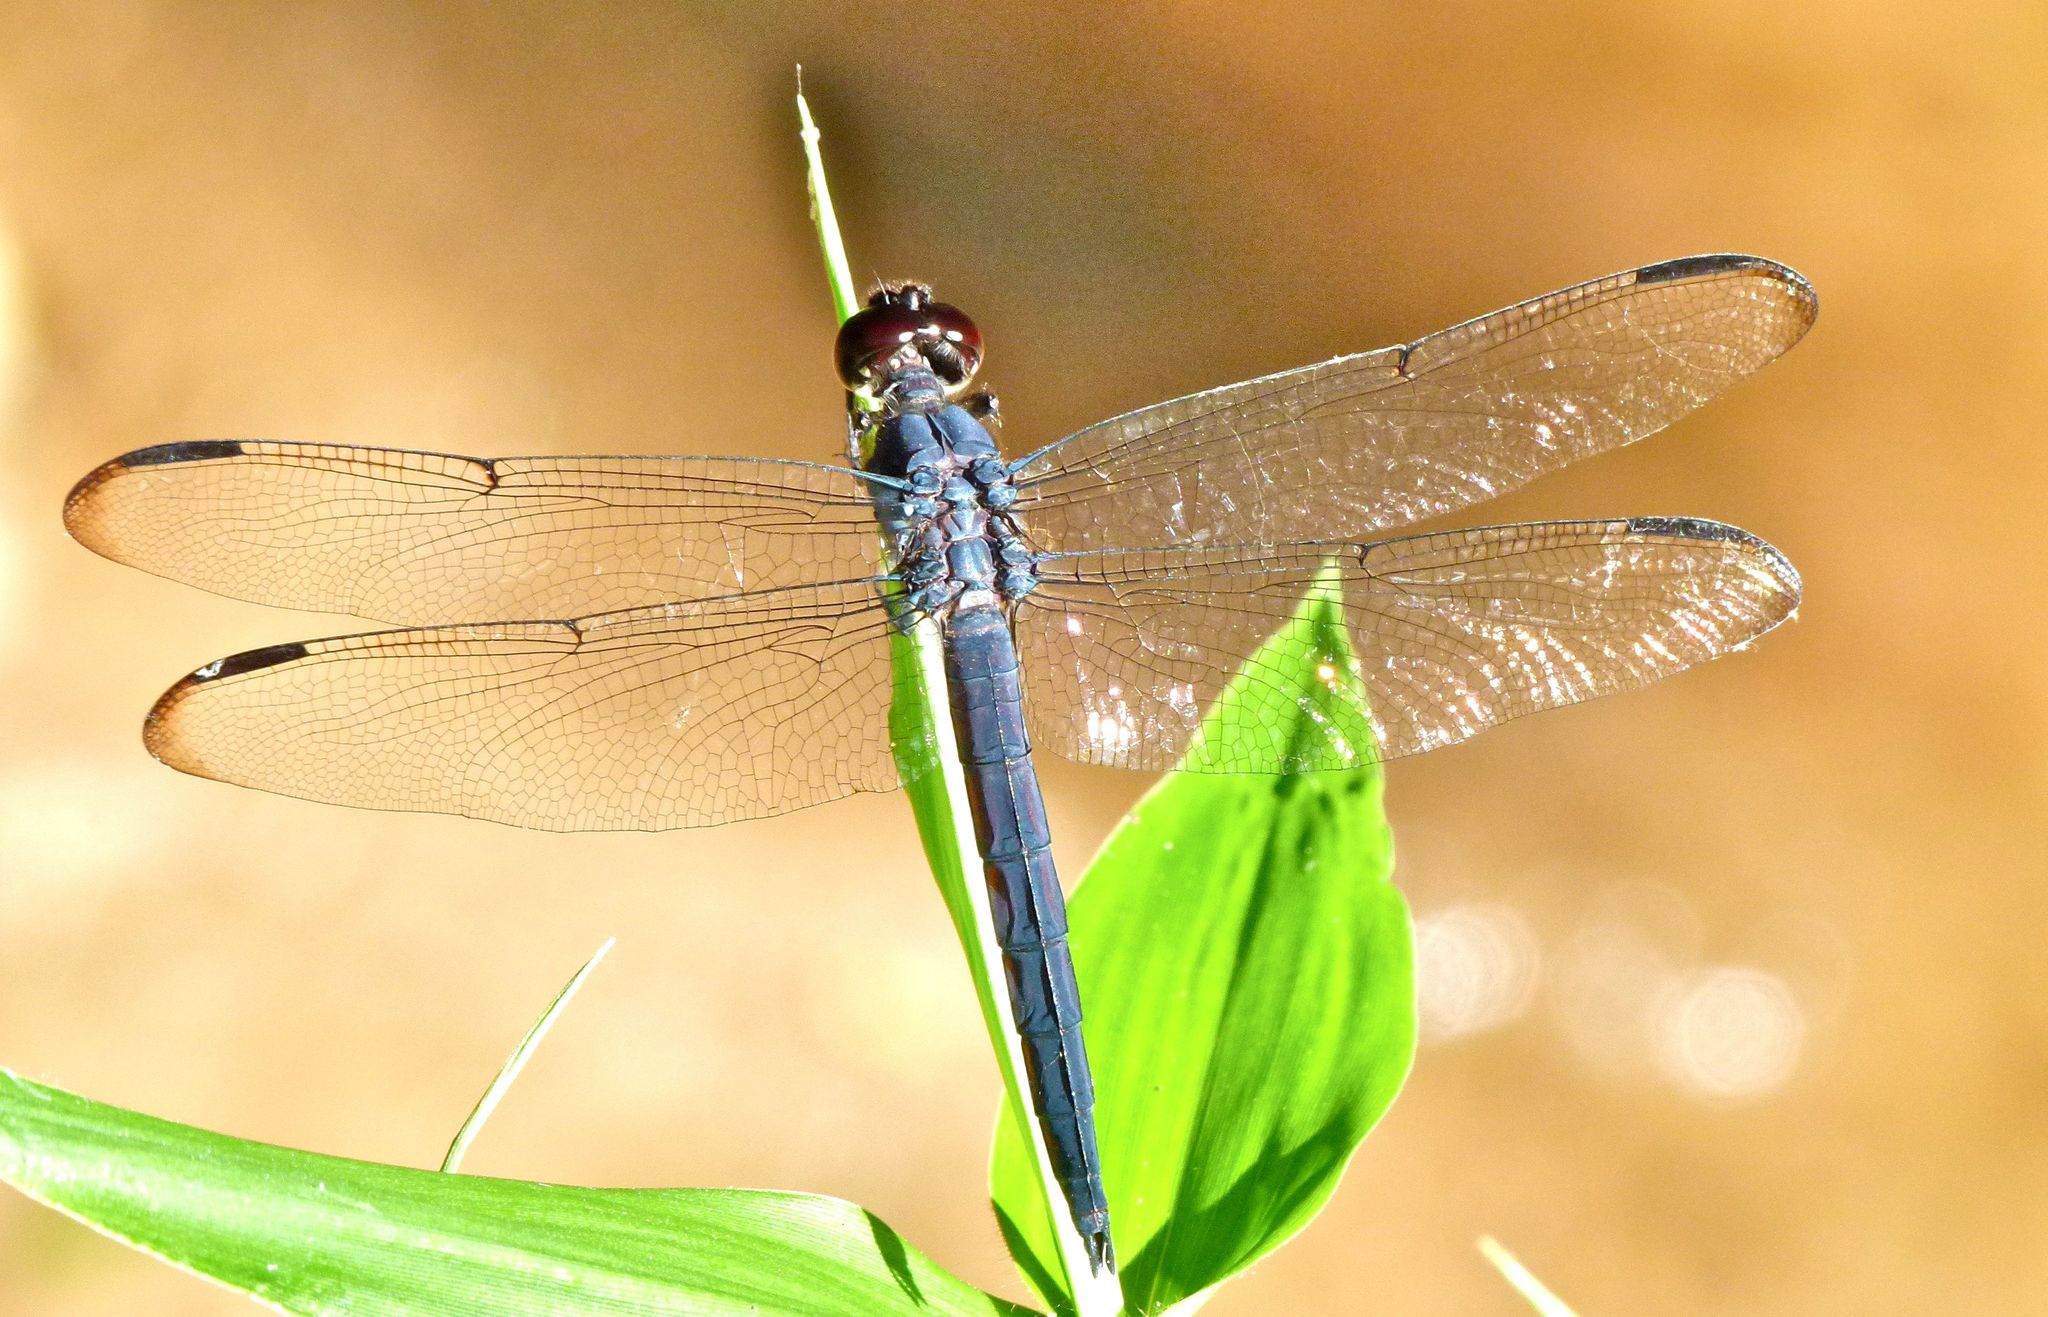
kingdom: Animalia
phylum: Arthropoda
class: Insecta
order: Odonata
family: Libellulidae
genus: Libellula
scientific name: Libellula incesta
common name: Slaty skimmer
